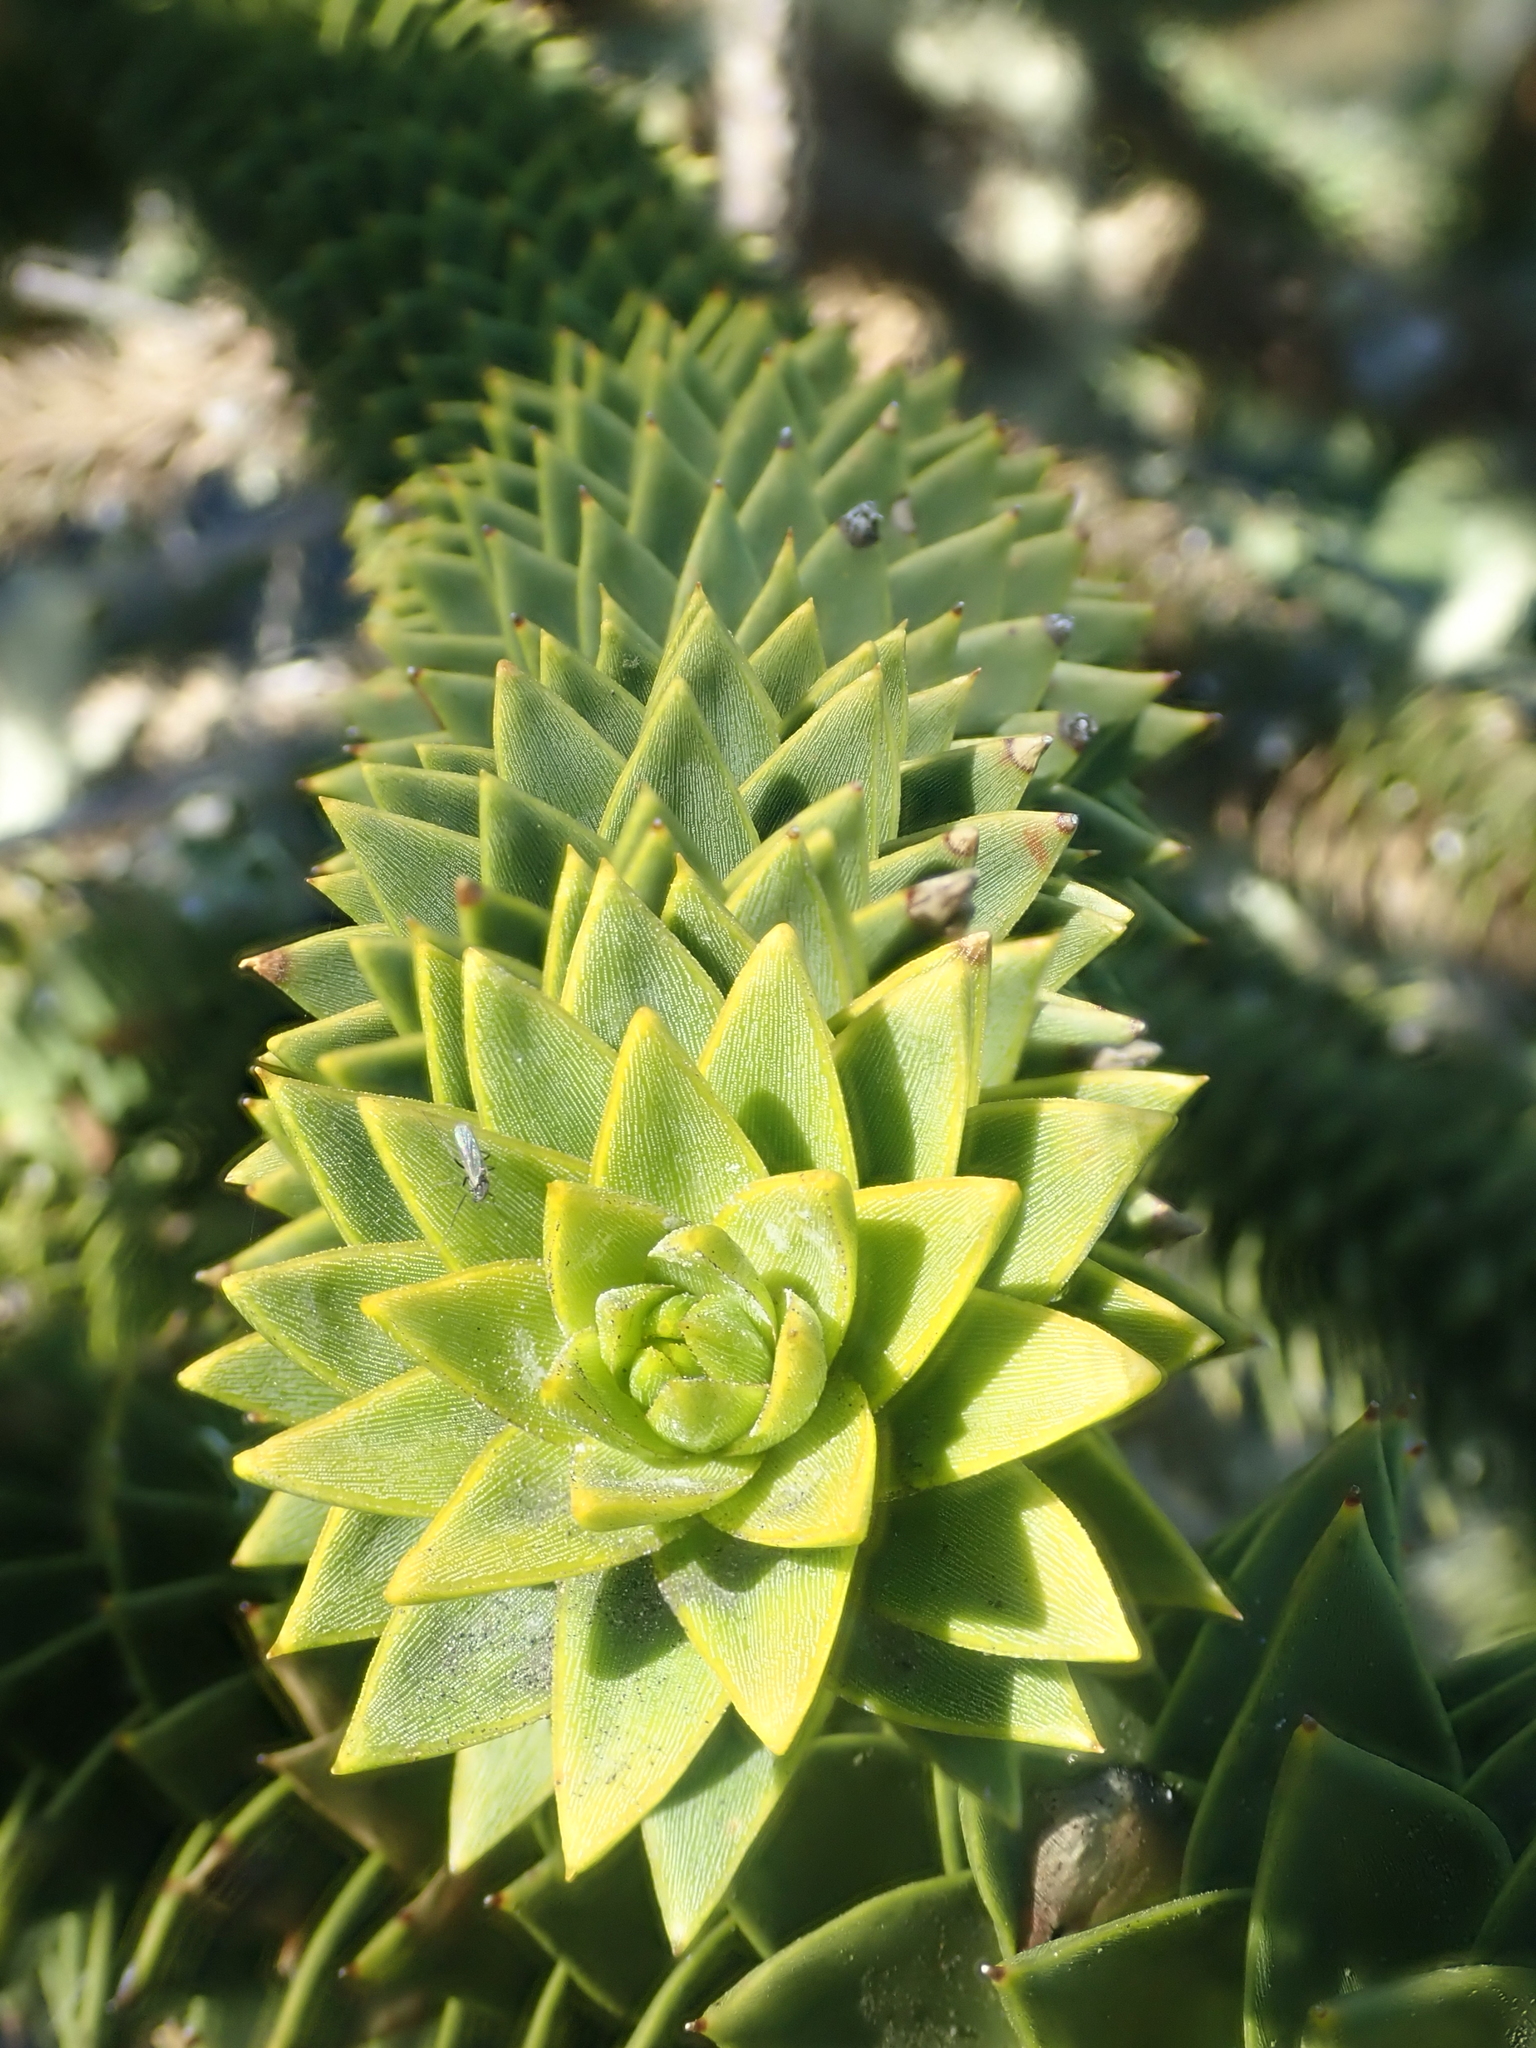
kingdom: Plantae
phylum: Tracheophyta
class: Pinopsida
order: Pinales
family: Araucariaceae
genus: Araucaria
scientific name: Araucaria araucana
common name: Monkey-puzzle
